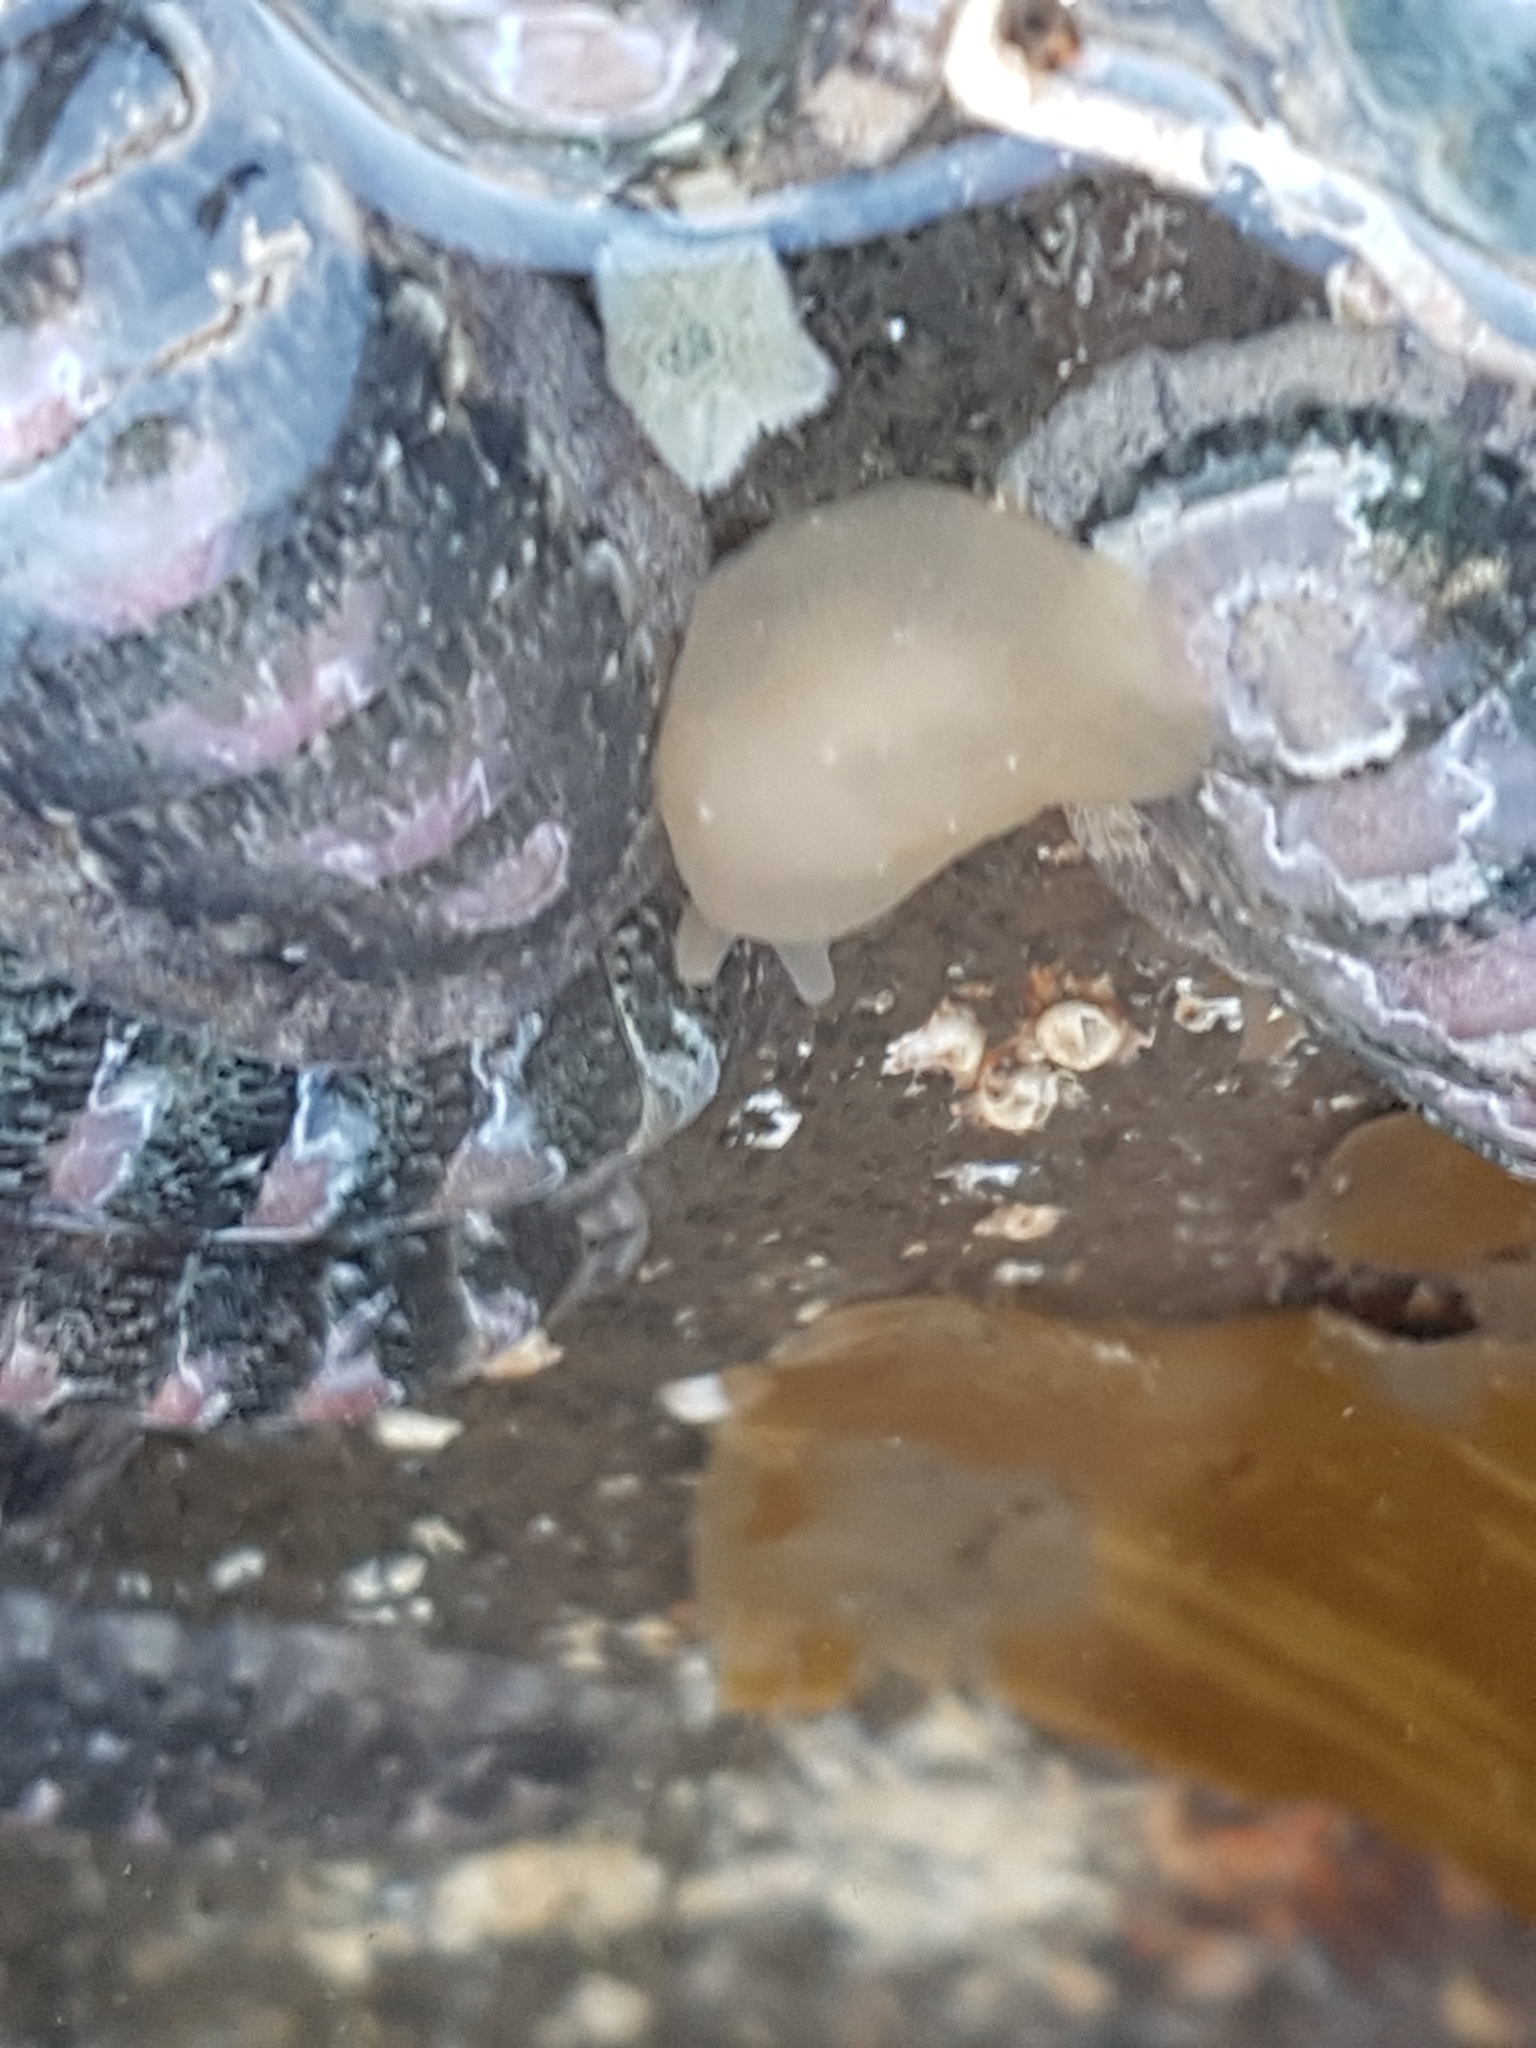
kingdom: Animalia
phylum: Mollusca
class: Gastropoda
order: Pleurobranchida
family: Pleurobranchidae
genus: Berthella
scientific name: Berthella medietas
